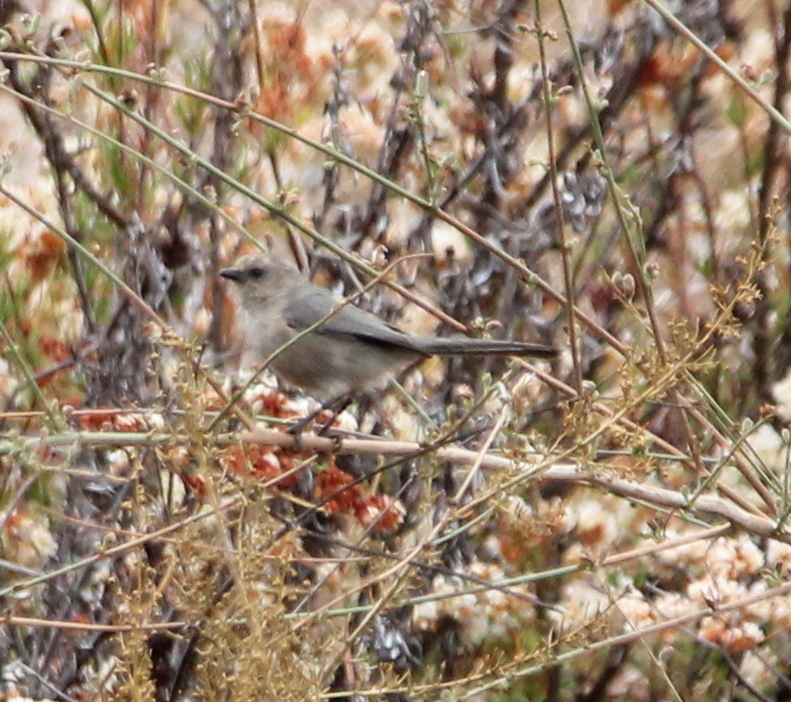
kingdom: Animalia
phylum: Chordata
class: Aves
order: Passeriformes
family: Aegithalidae
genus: Psaltriparus
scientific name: Psaltriparus minimus
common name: American bushtit
